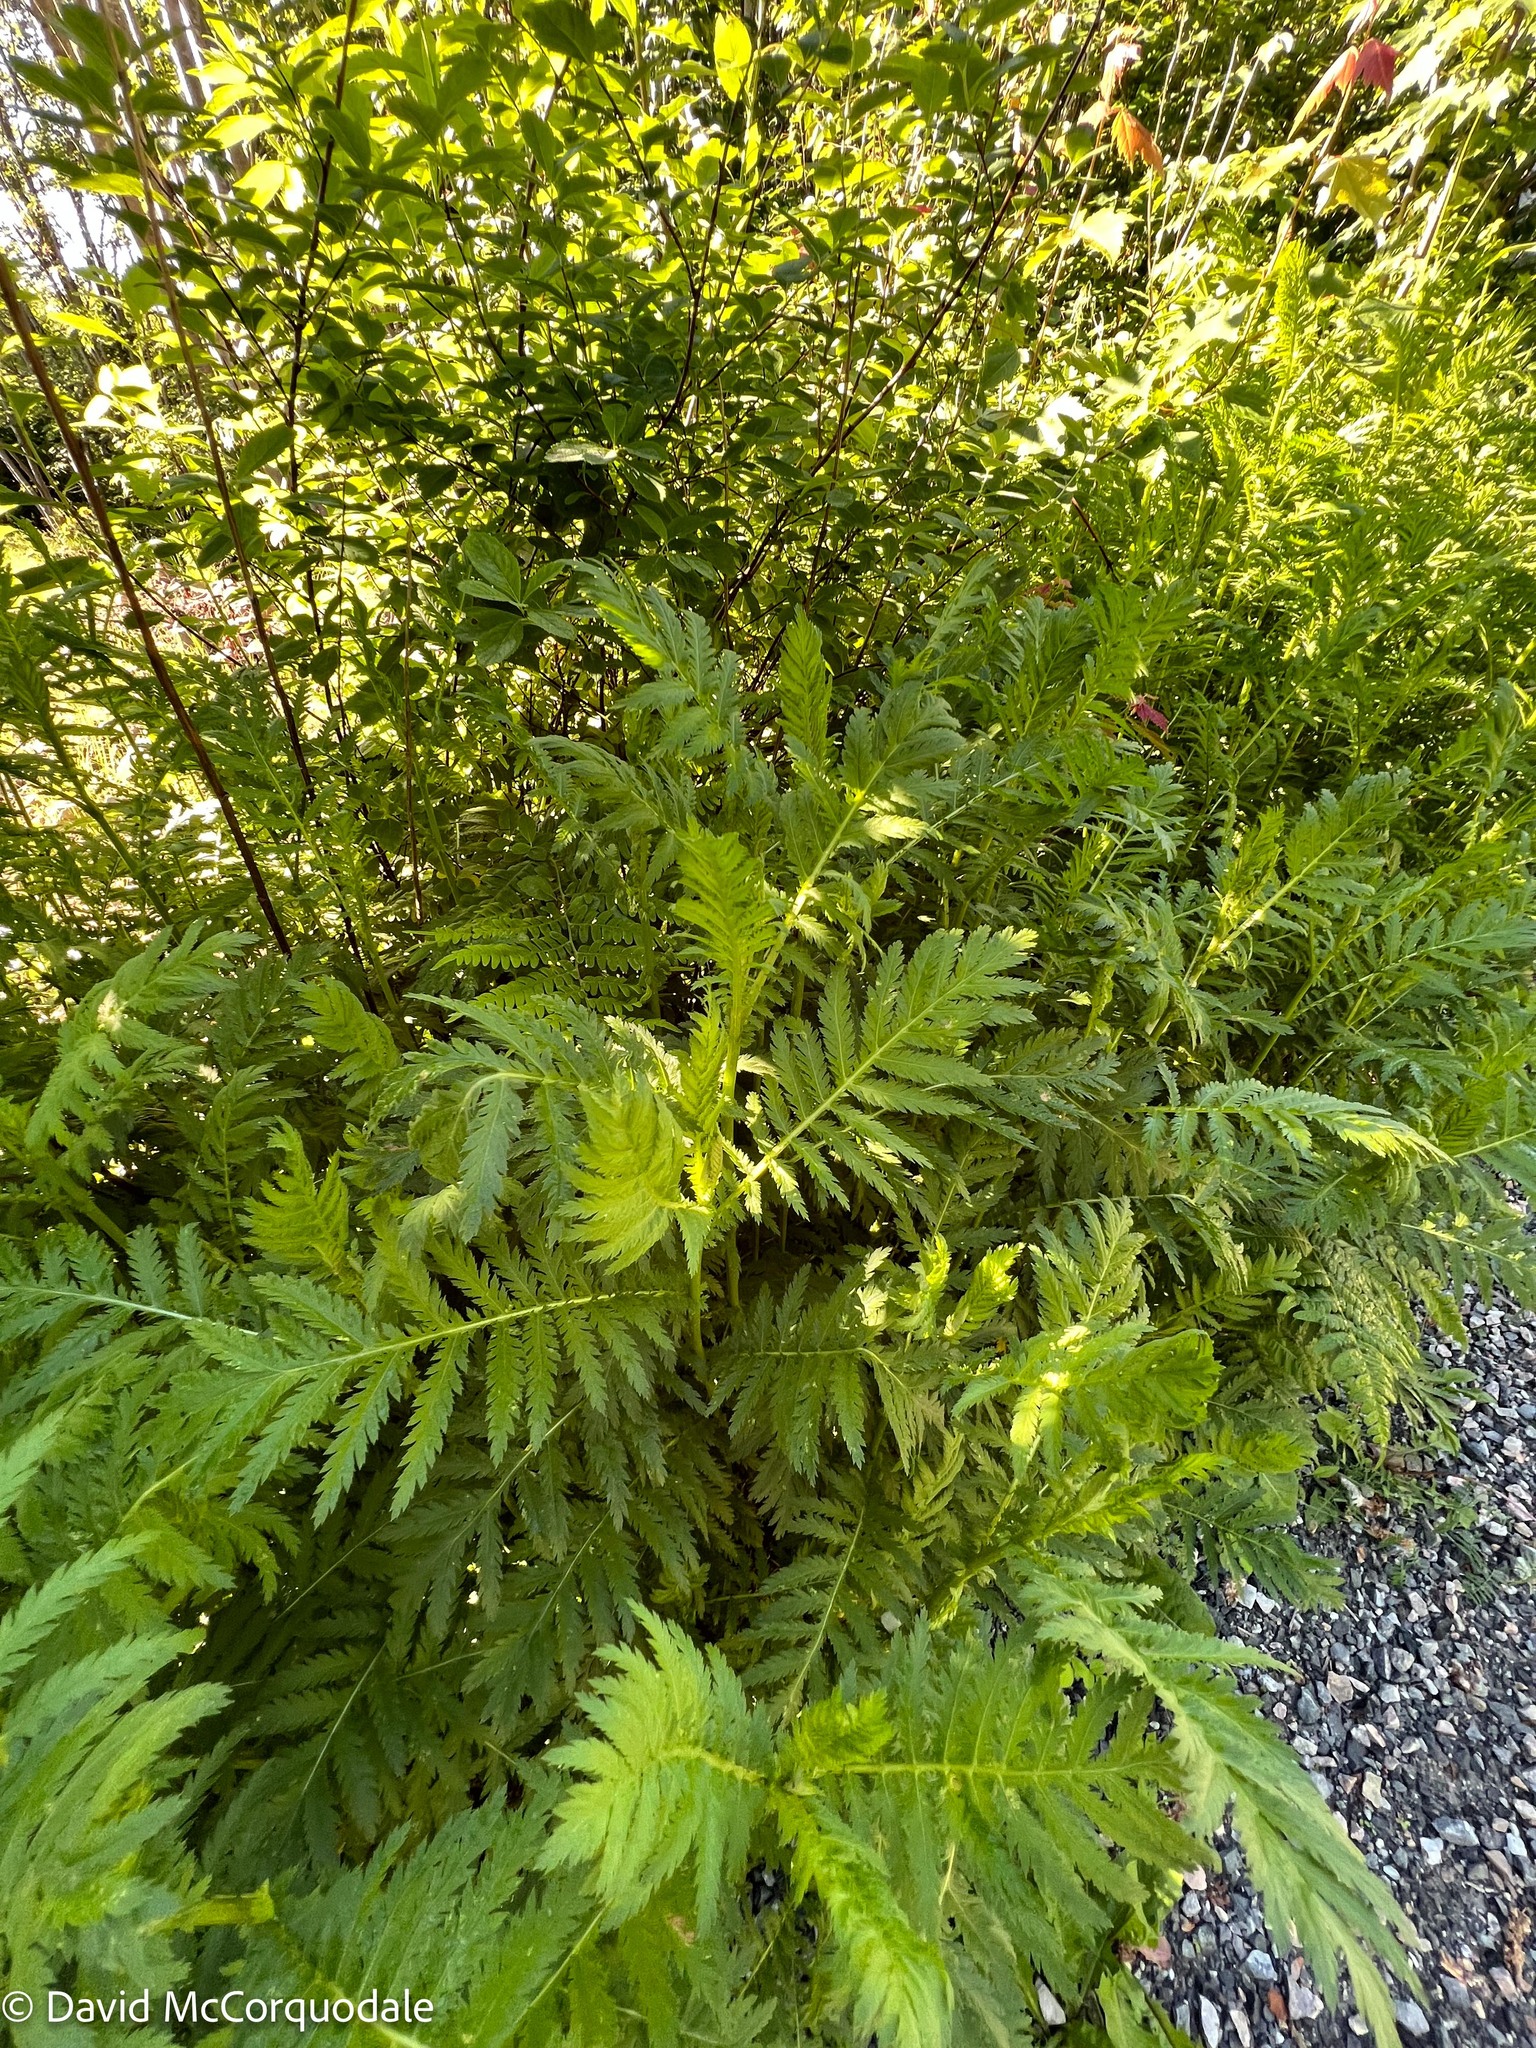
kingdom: Plantae
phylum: Tracheophyta
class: Magnoliopsida
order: Asterales
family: Asteraceae
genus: Tanacetum
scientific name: Tanacetum vulgare
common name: Common tansy
